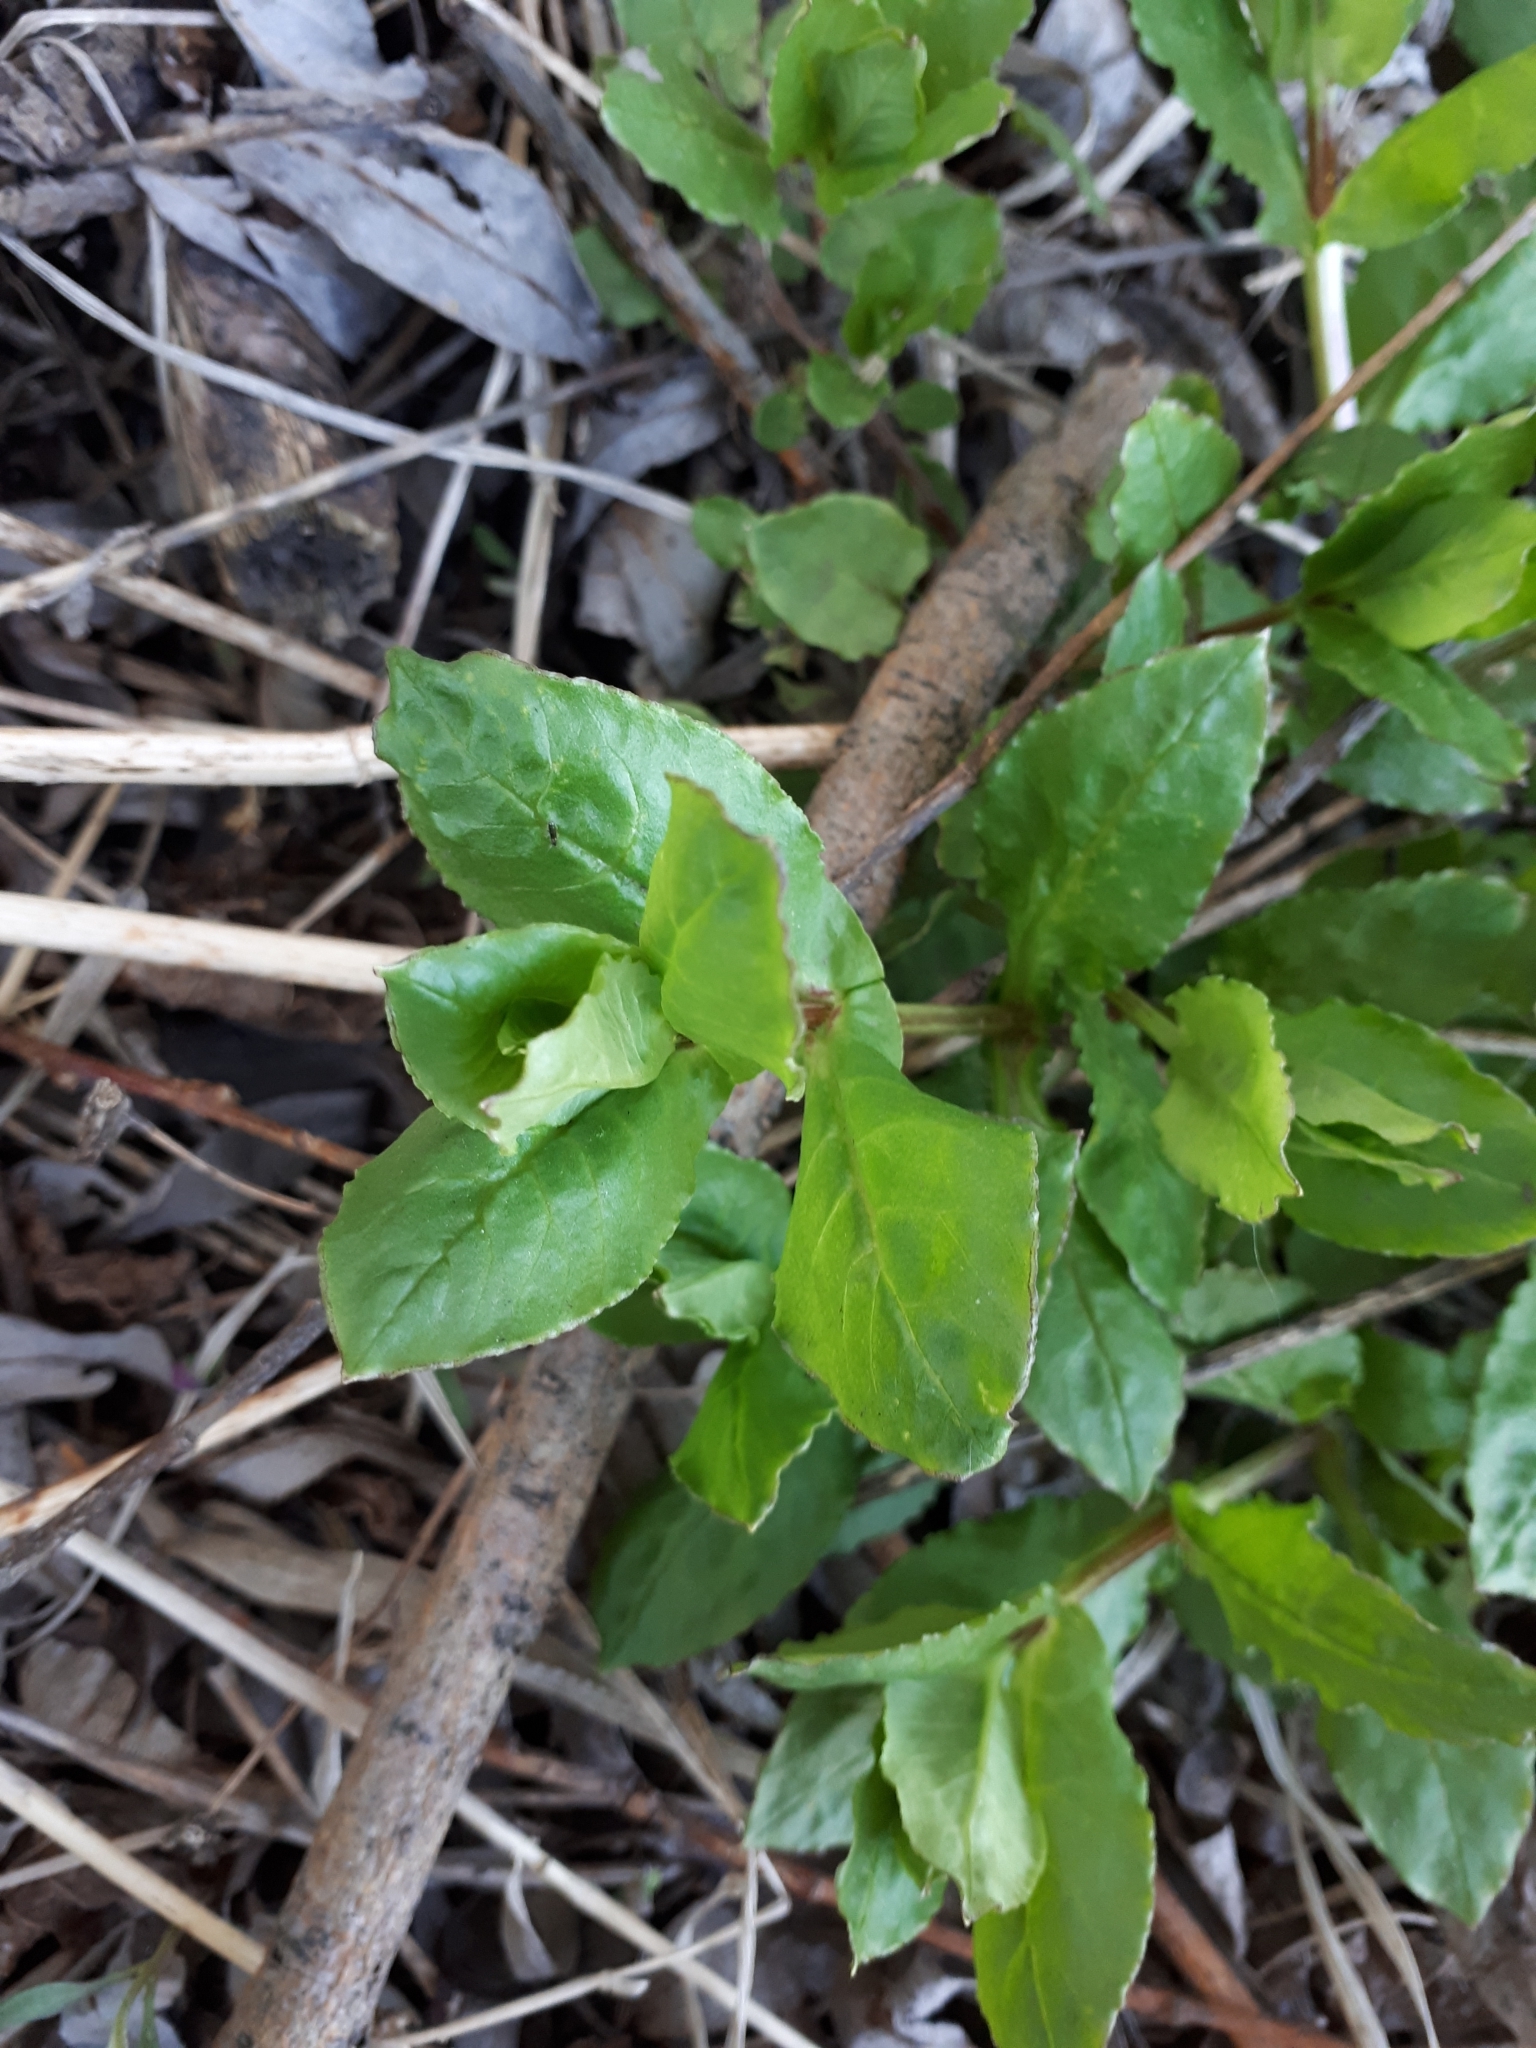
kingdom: Plantae
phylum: Tracheophyta
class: Magnoliopsida
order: Caryophyllales
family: Caryophyllaceae
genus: Stellaria
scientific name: Stellaria aquatica
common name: Water chickweed
